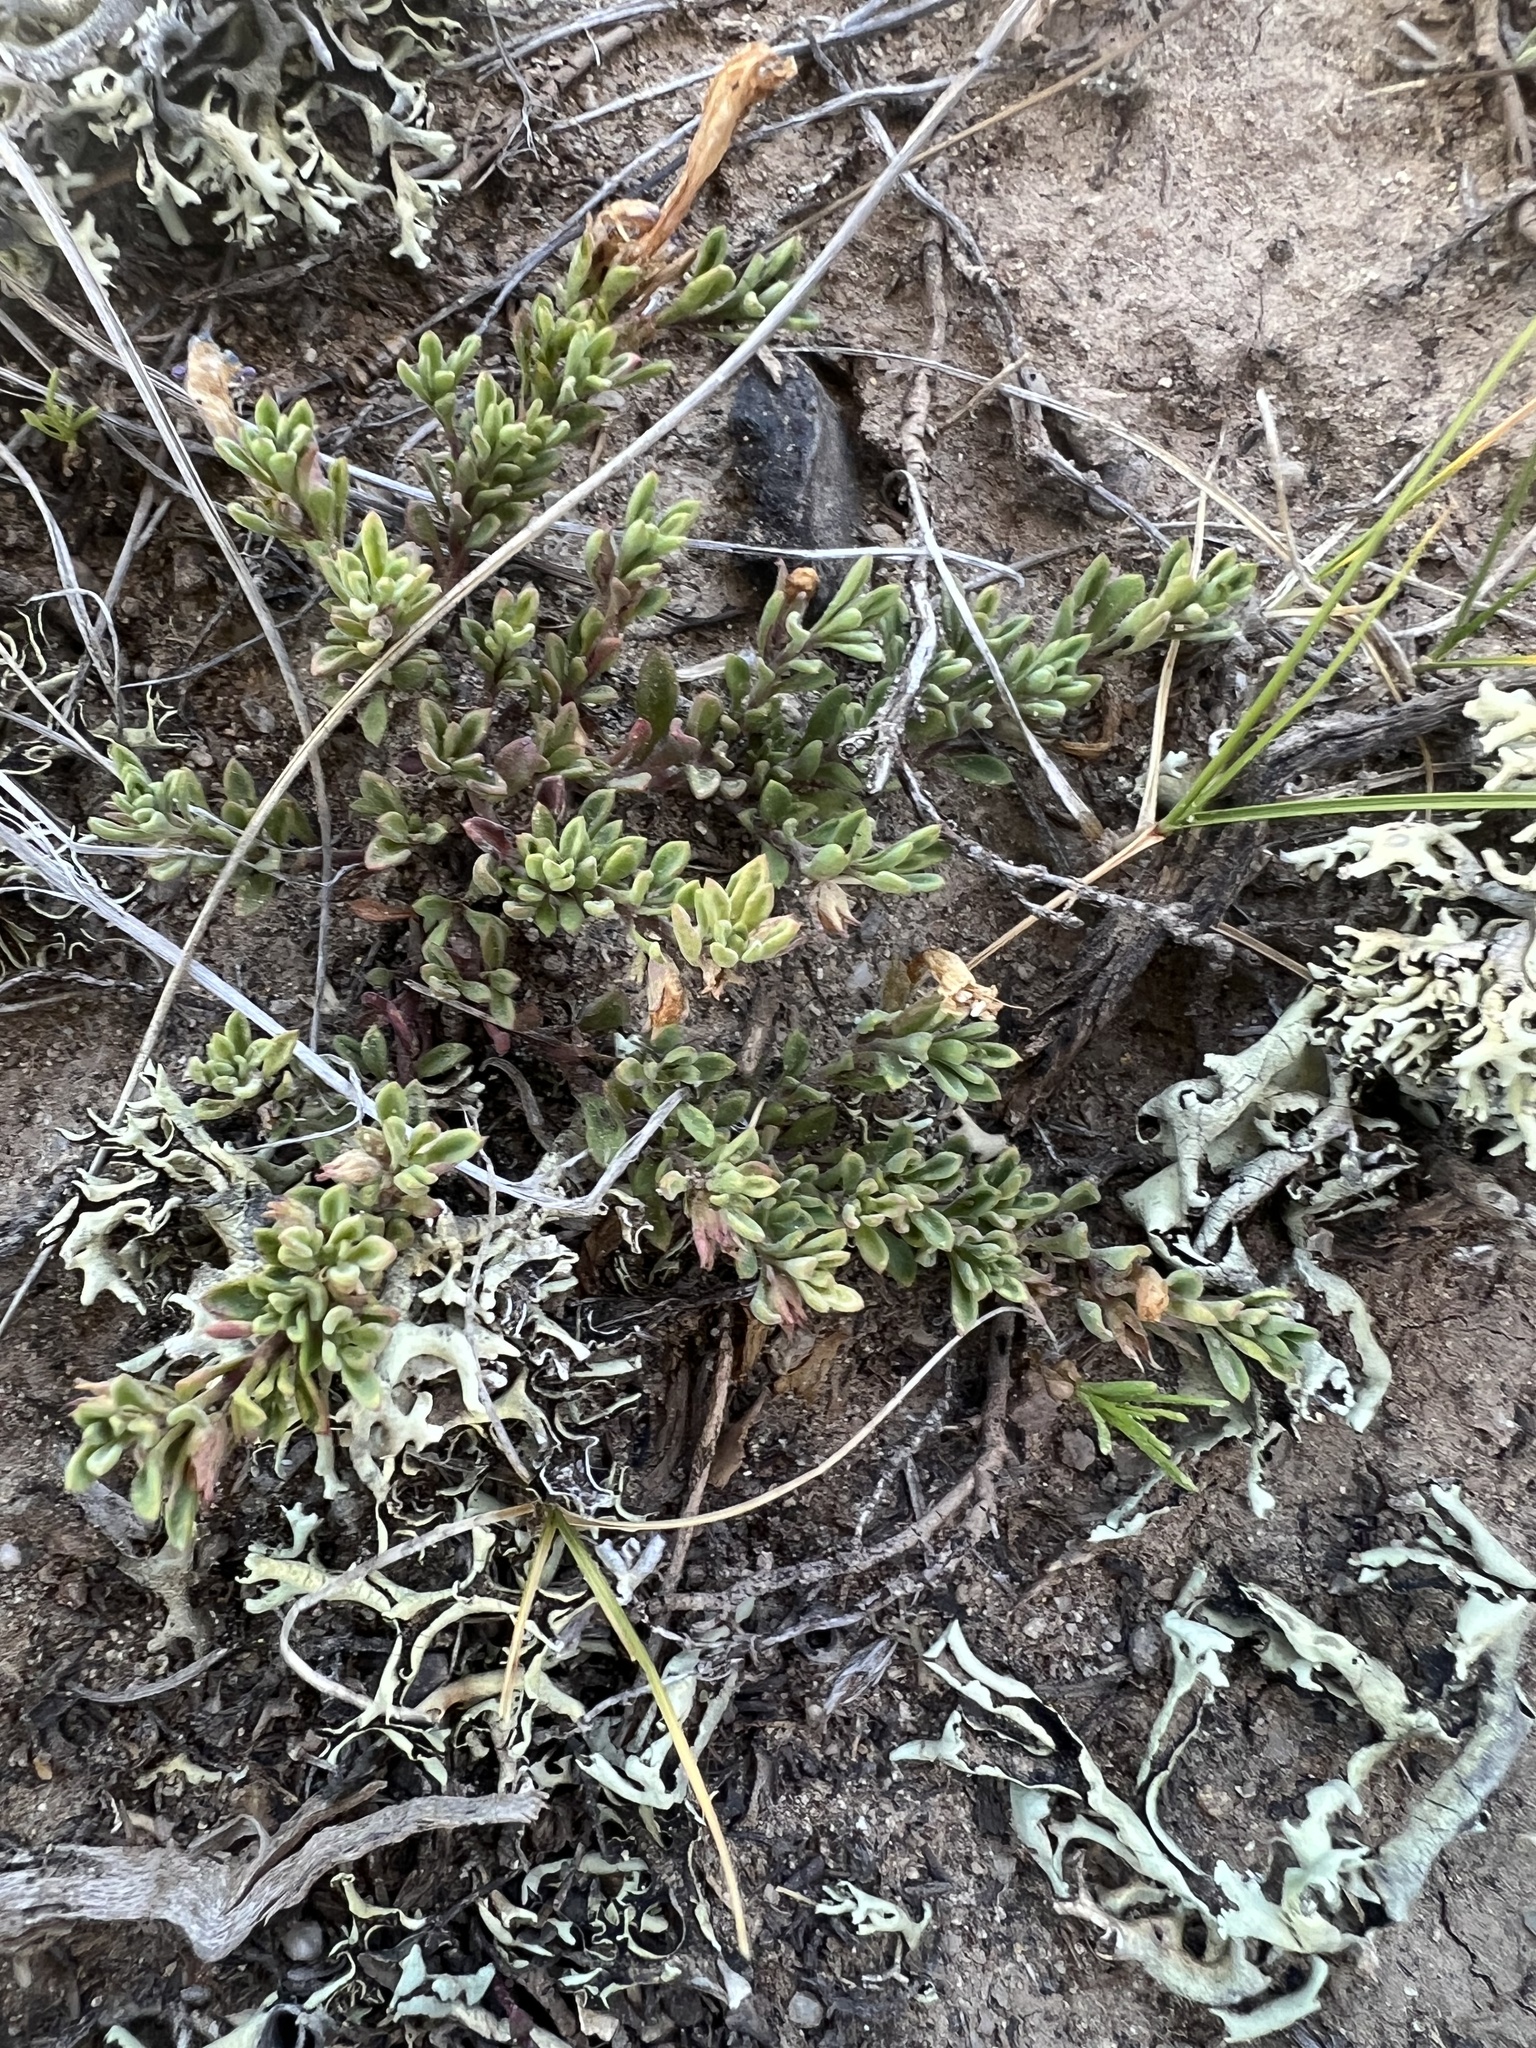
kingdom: Plantae
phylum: Tracheophyta
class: Magnoliopsida
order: Lamiales
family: Plantaginaceae
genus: Penstemon
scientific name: Penstemon caespitosus
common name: Mat penstemon
